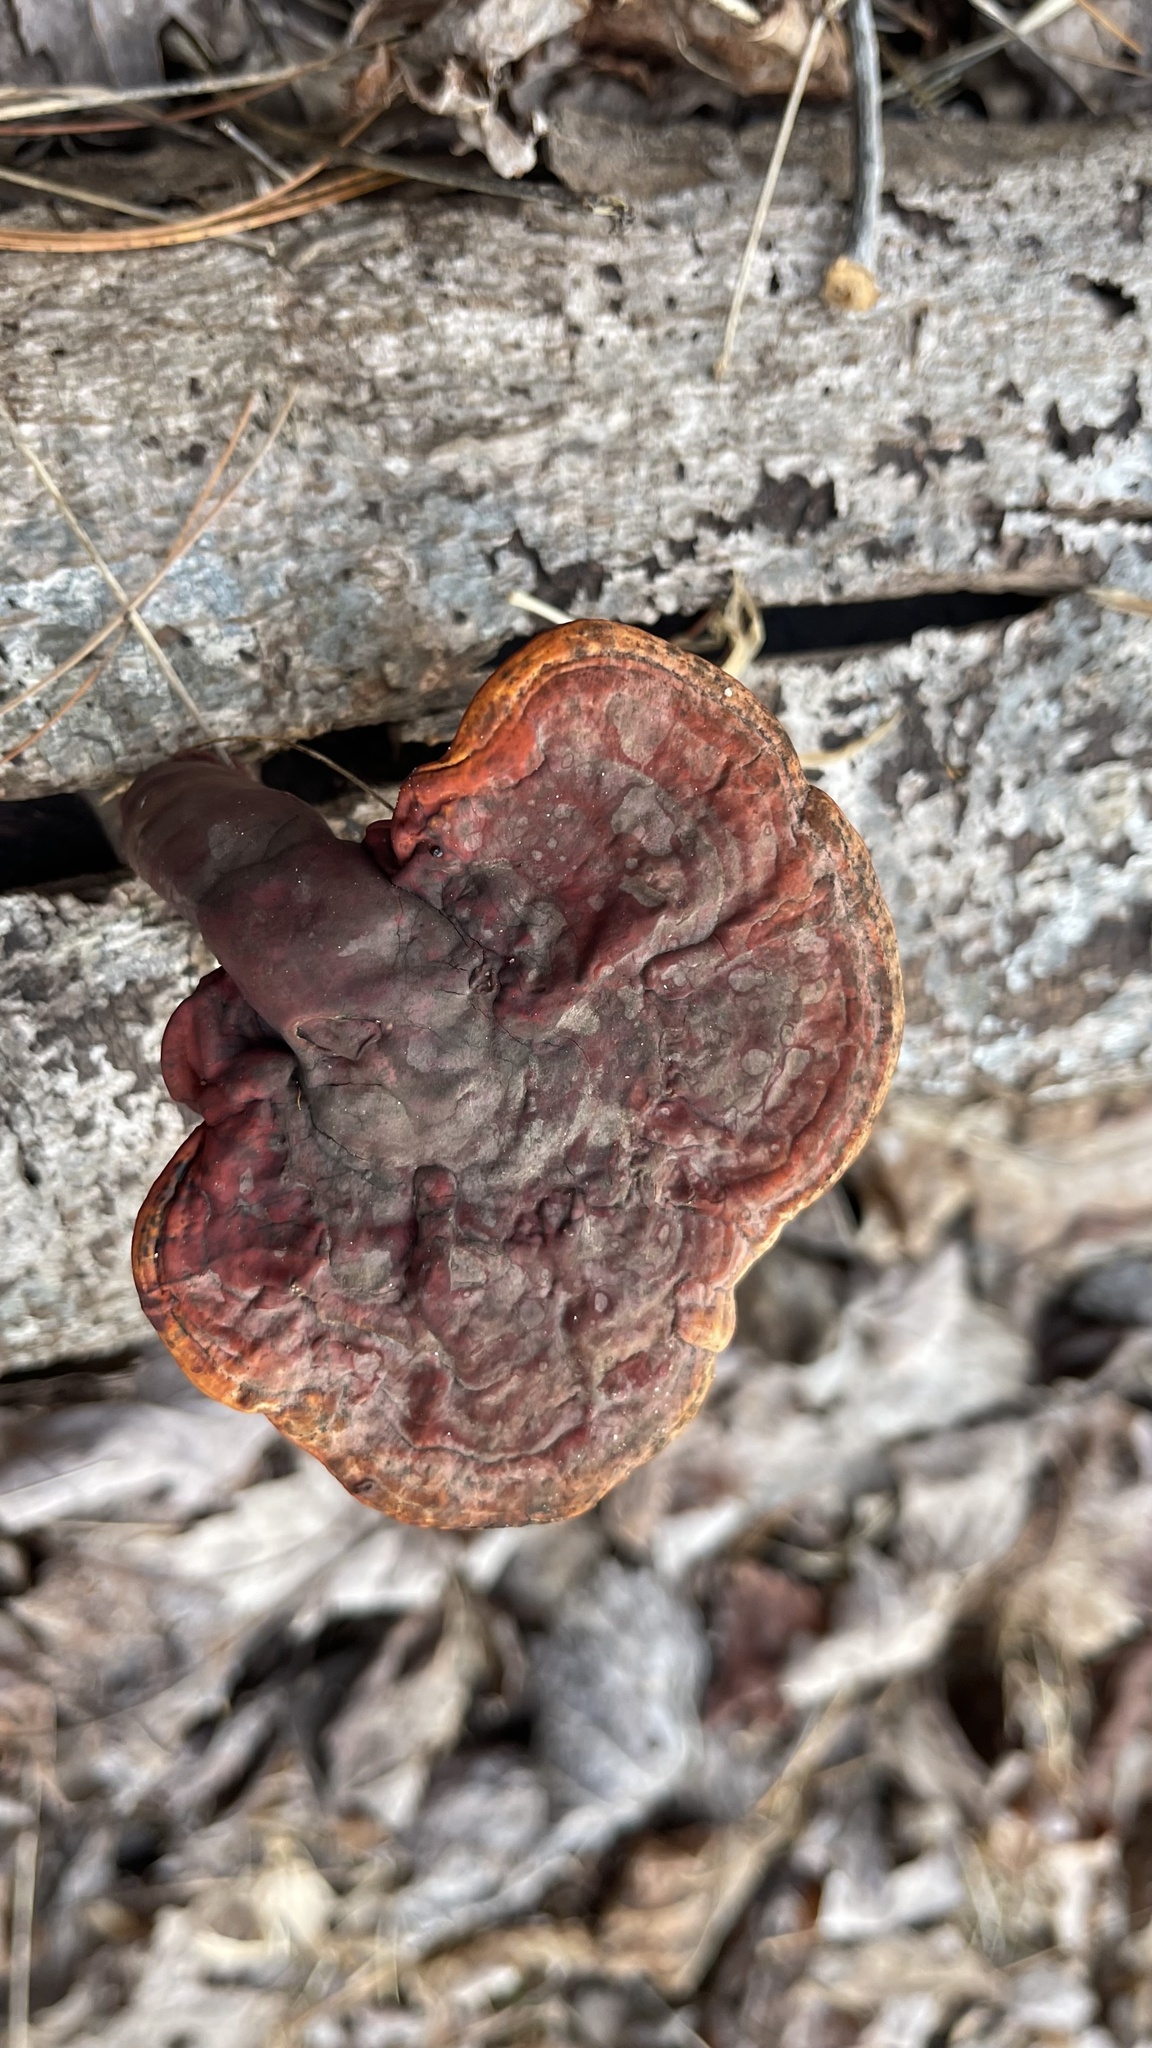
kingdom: Fungi
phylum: Basidiomycota
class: Agaricomycetes
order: Polyporales
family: Polyporaceae
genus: Ganoderma
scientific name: Ganoderma curtisii
